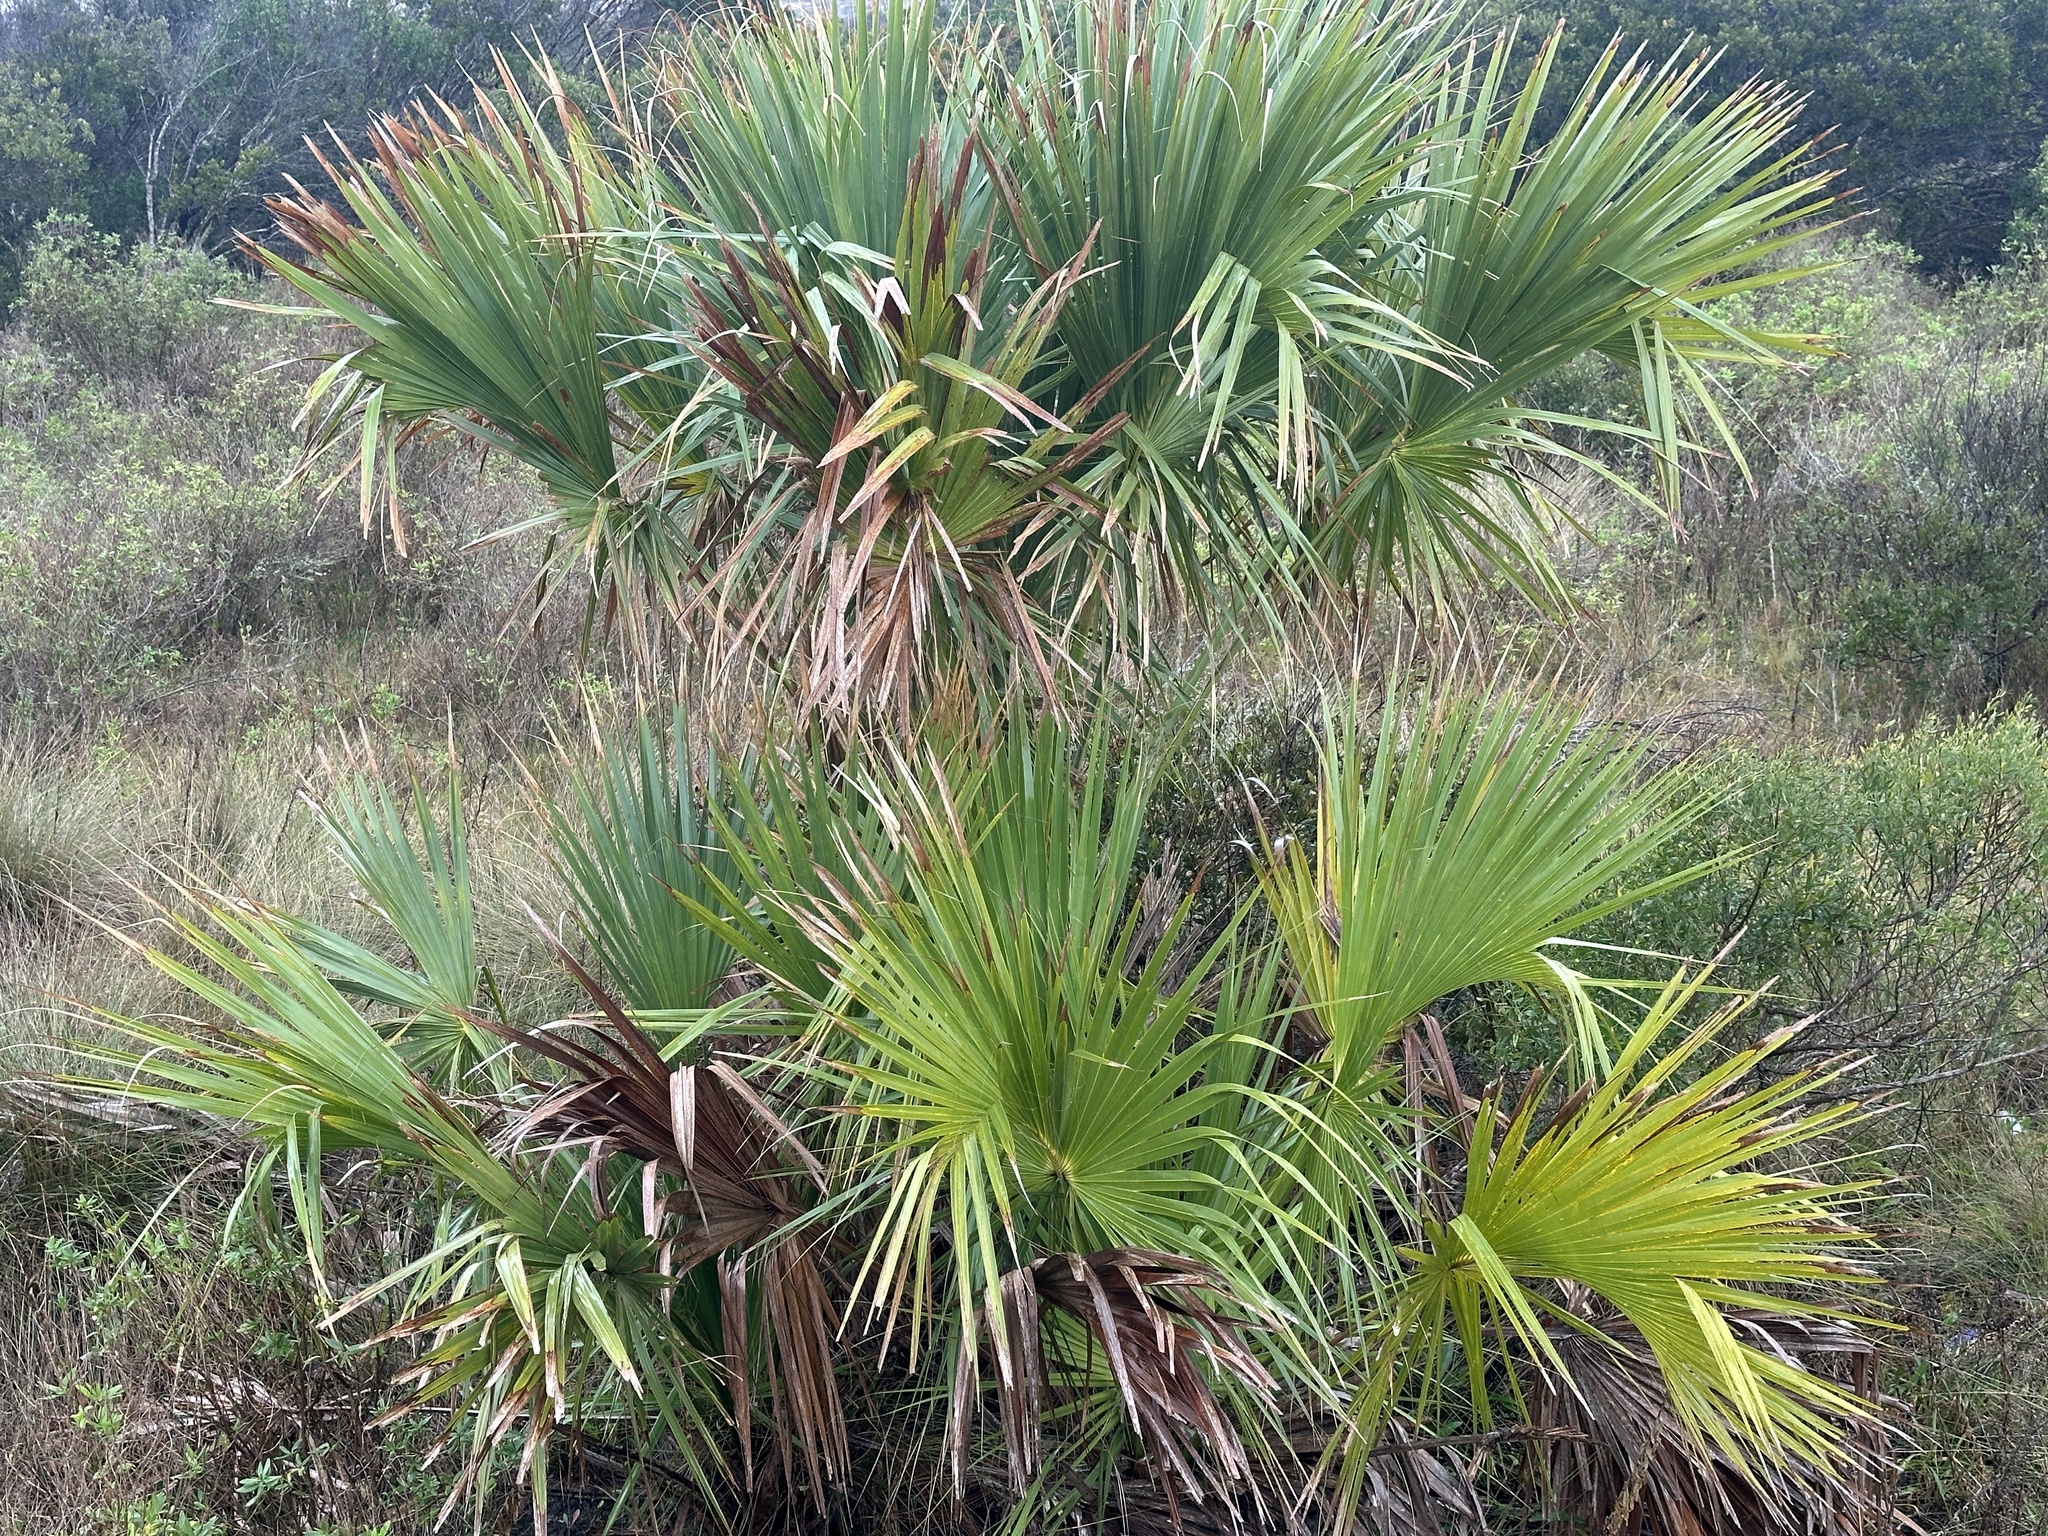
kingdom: Plantae
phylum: Tracheophyta
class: Liliopsida
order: Arecales
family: Arecaceae
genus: Sabal
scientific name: Sabal palmetto
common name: Blue palmetto
